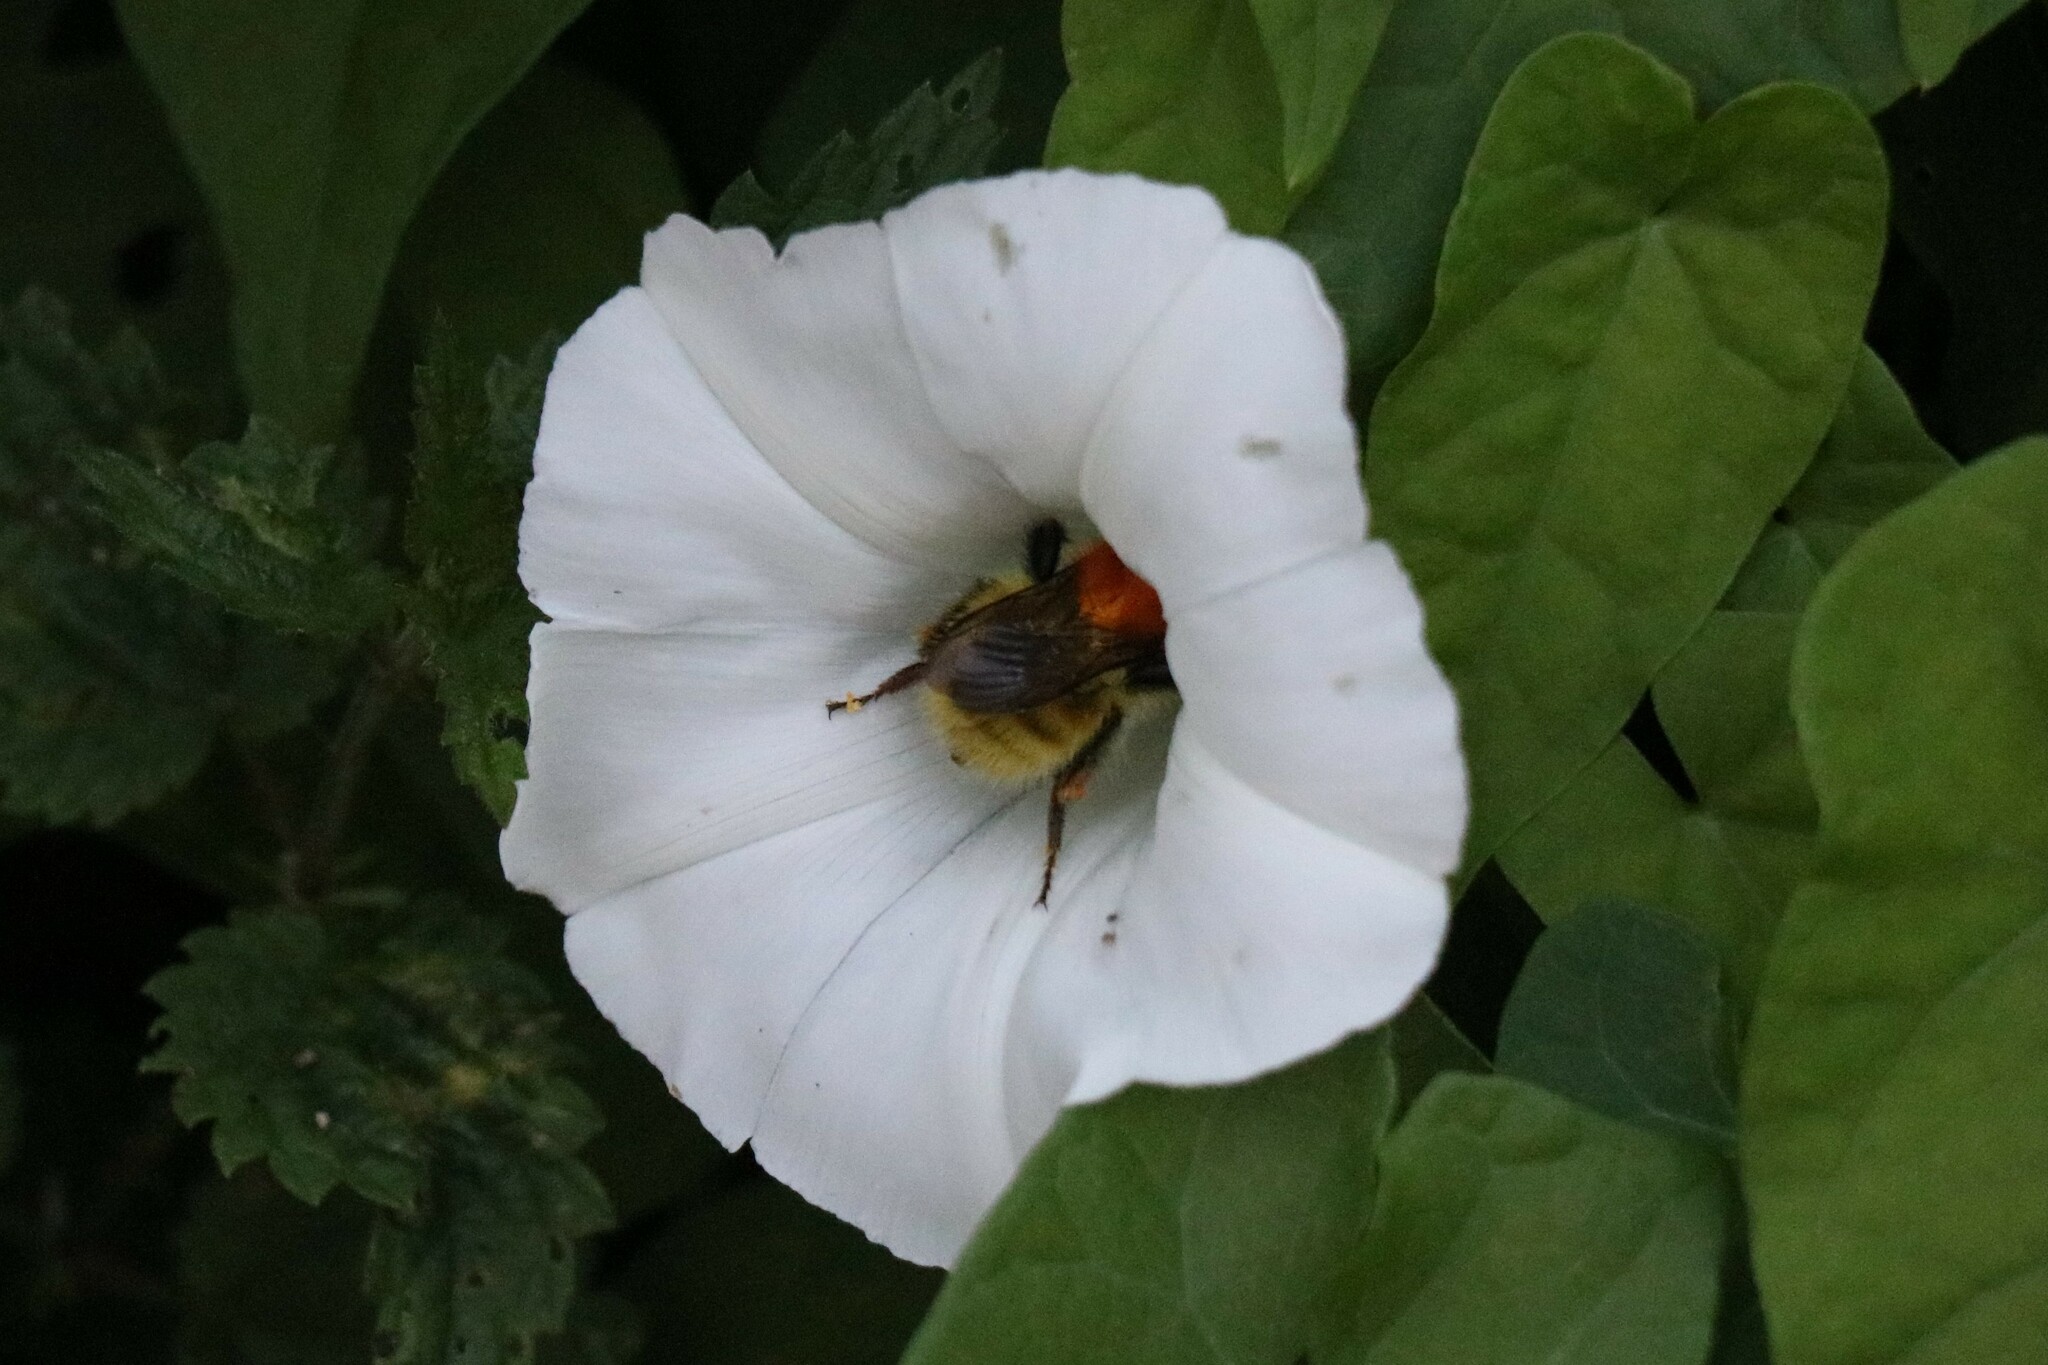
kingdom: Animalia
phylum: Arthropoda
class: Insecta
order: Hymenoptera
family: Apidae
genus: Bombus
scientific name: Bombus pascuorum
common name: Common carder bee
